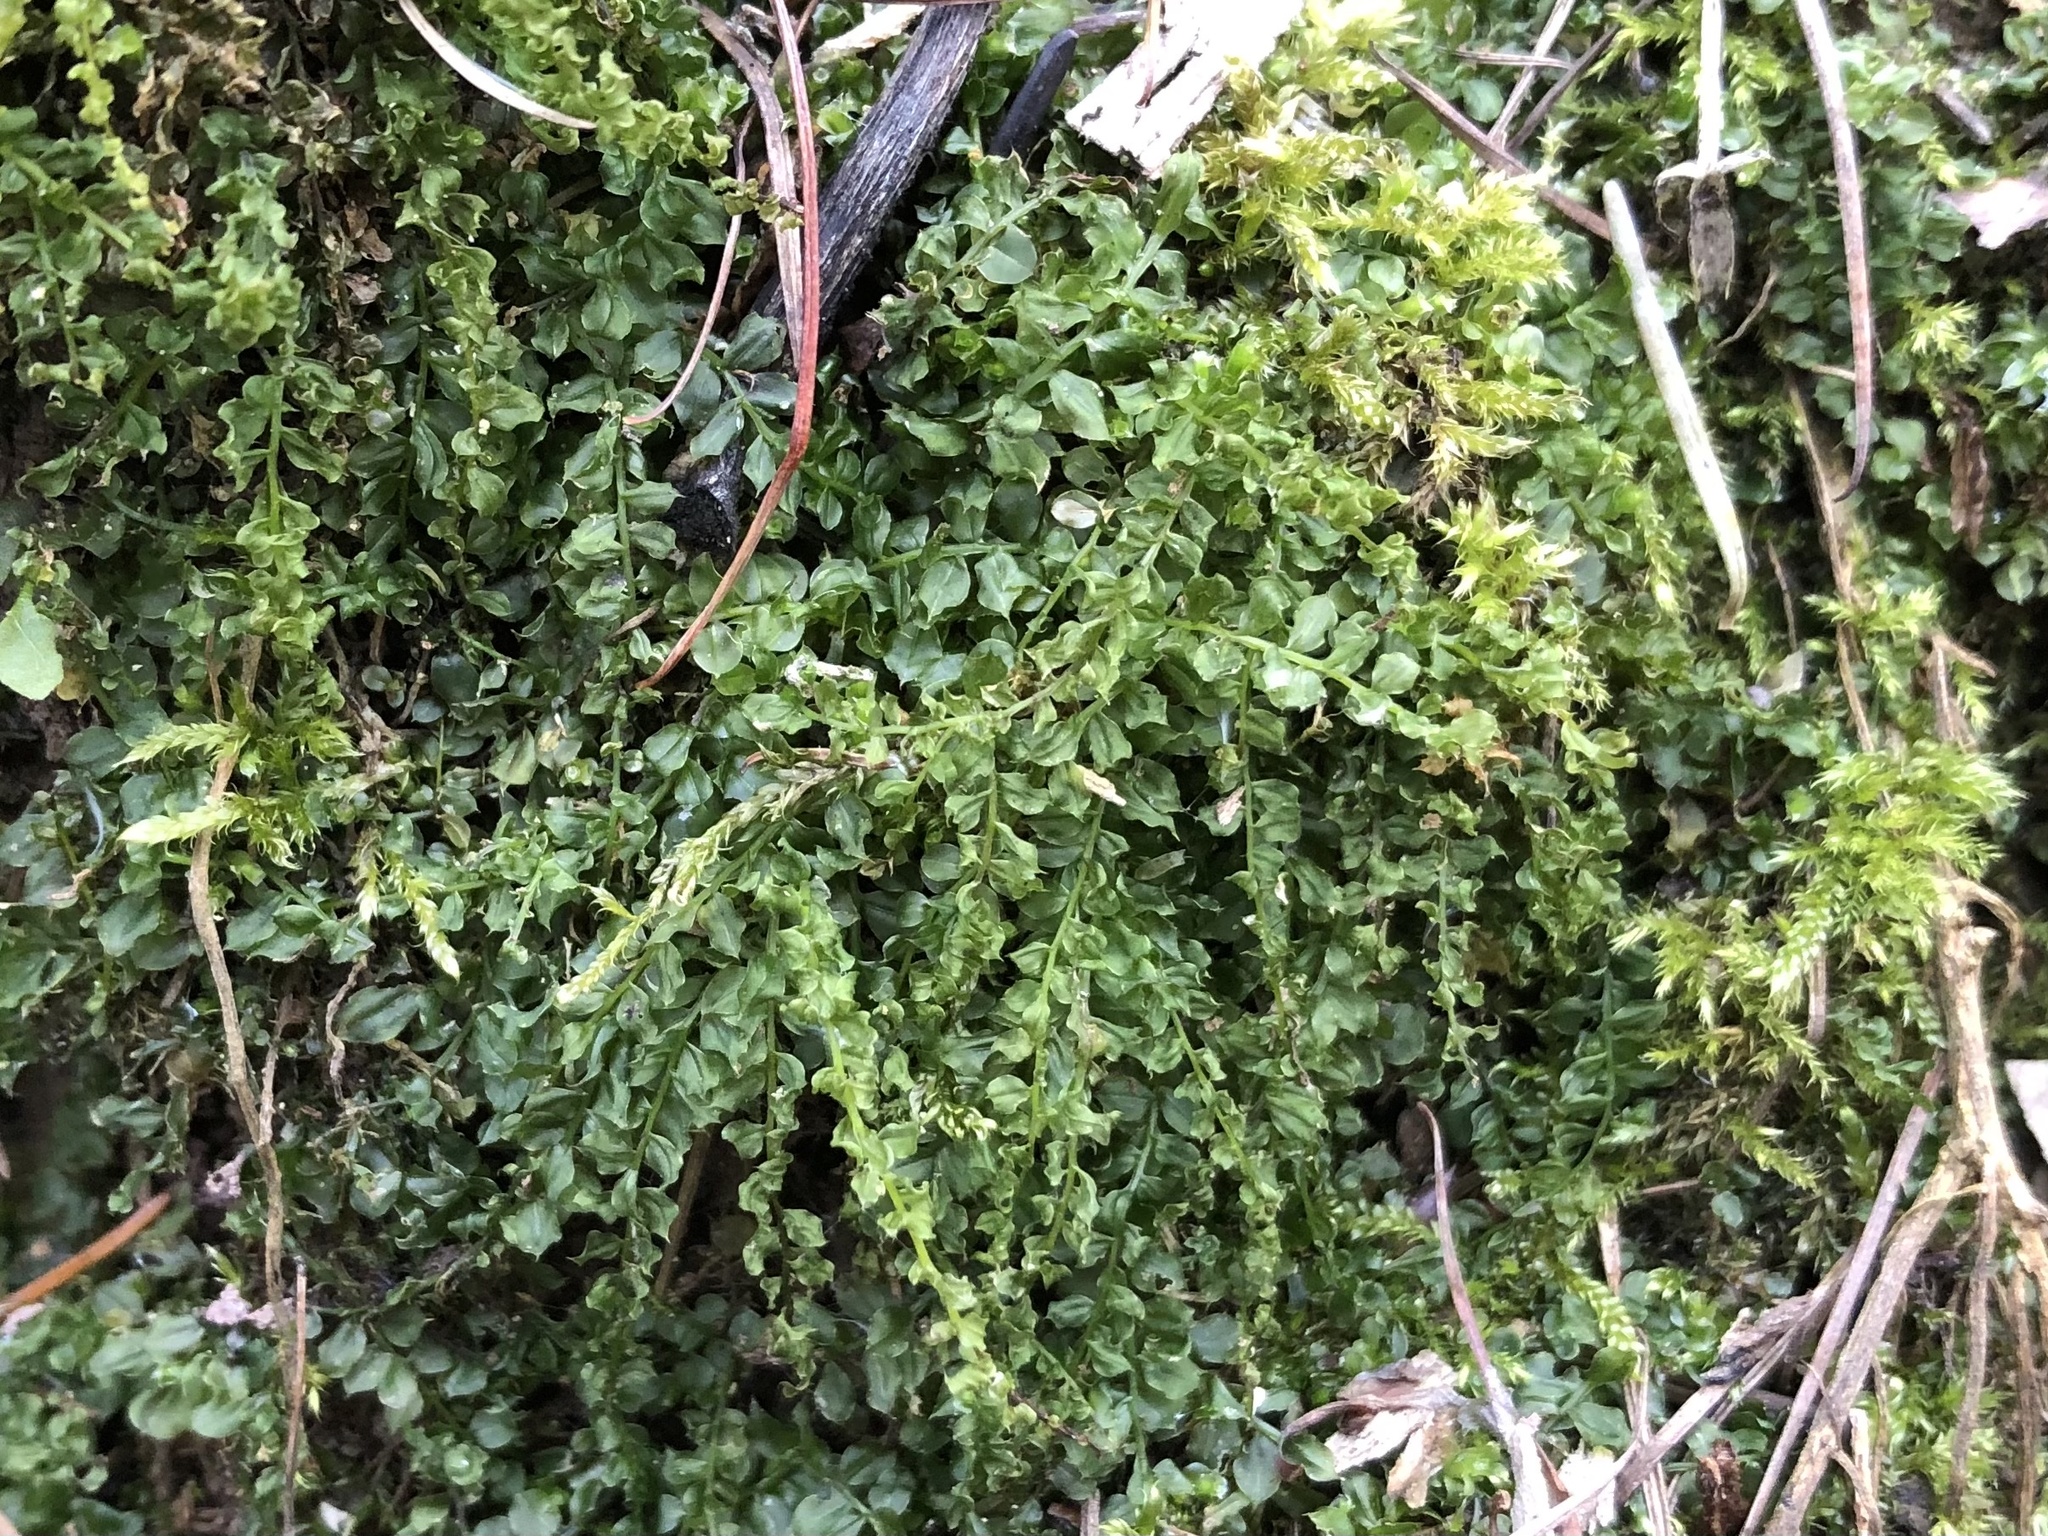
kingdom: Plantae
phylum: Bryophyta
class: Bryopsida
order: Bryales
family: Mniaceae
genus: Plagiomnium
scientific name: Plagiomnium cuspidatum
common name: Woodsy leafy moss
